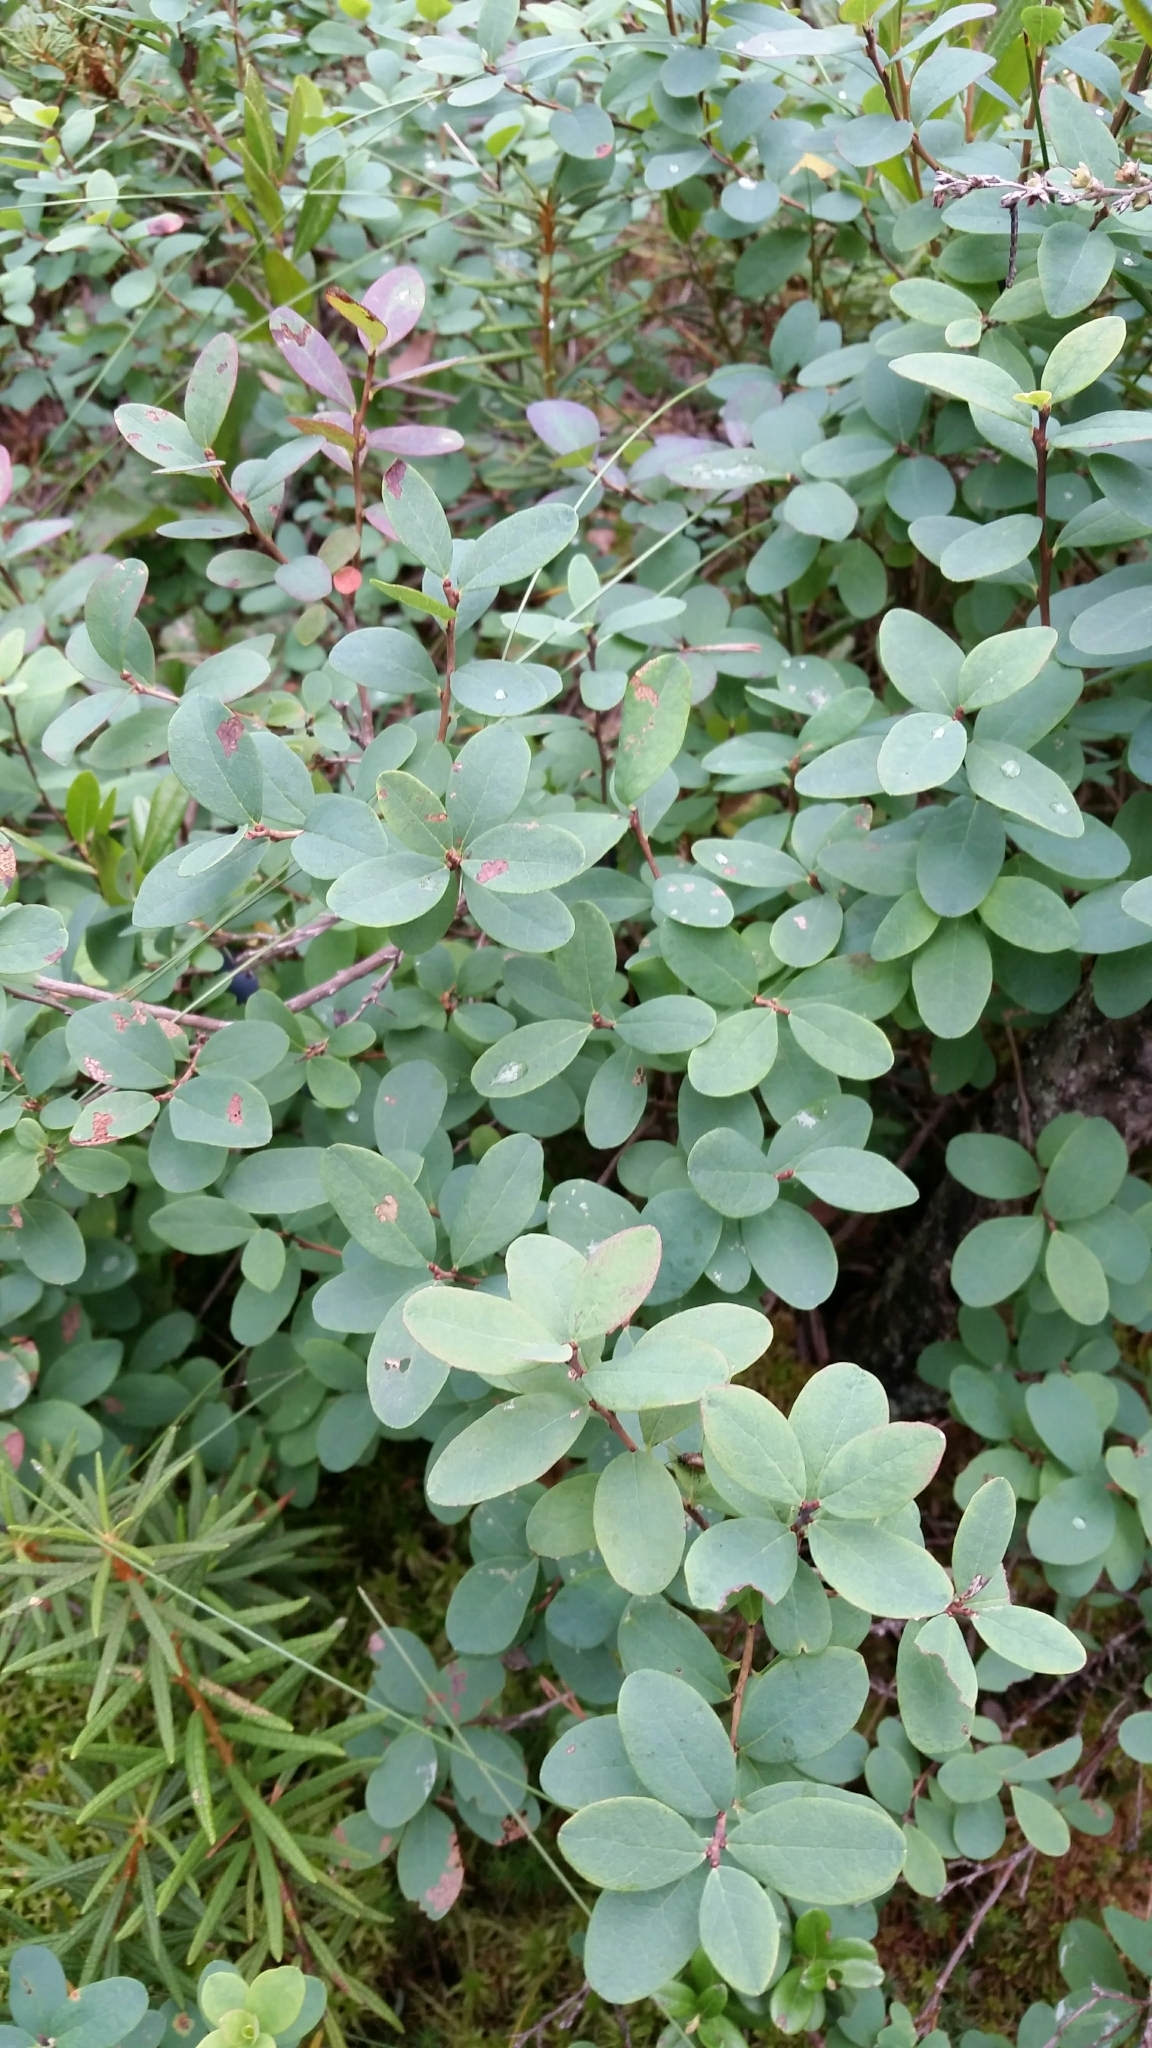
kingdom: Plantae
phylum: Tracheophyta
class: Magnoliopsida
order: Ericales
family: Ericaceae
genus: Vaccinium
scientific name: Vaccinium uliginosum
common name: Bog bilberry
